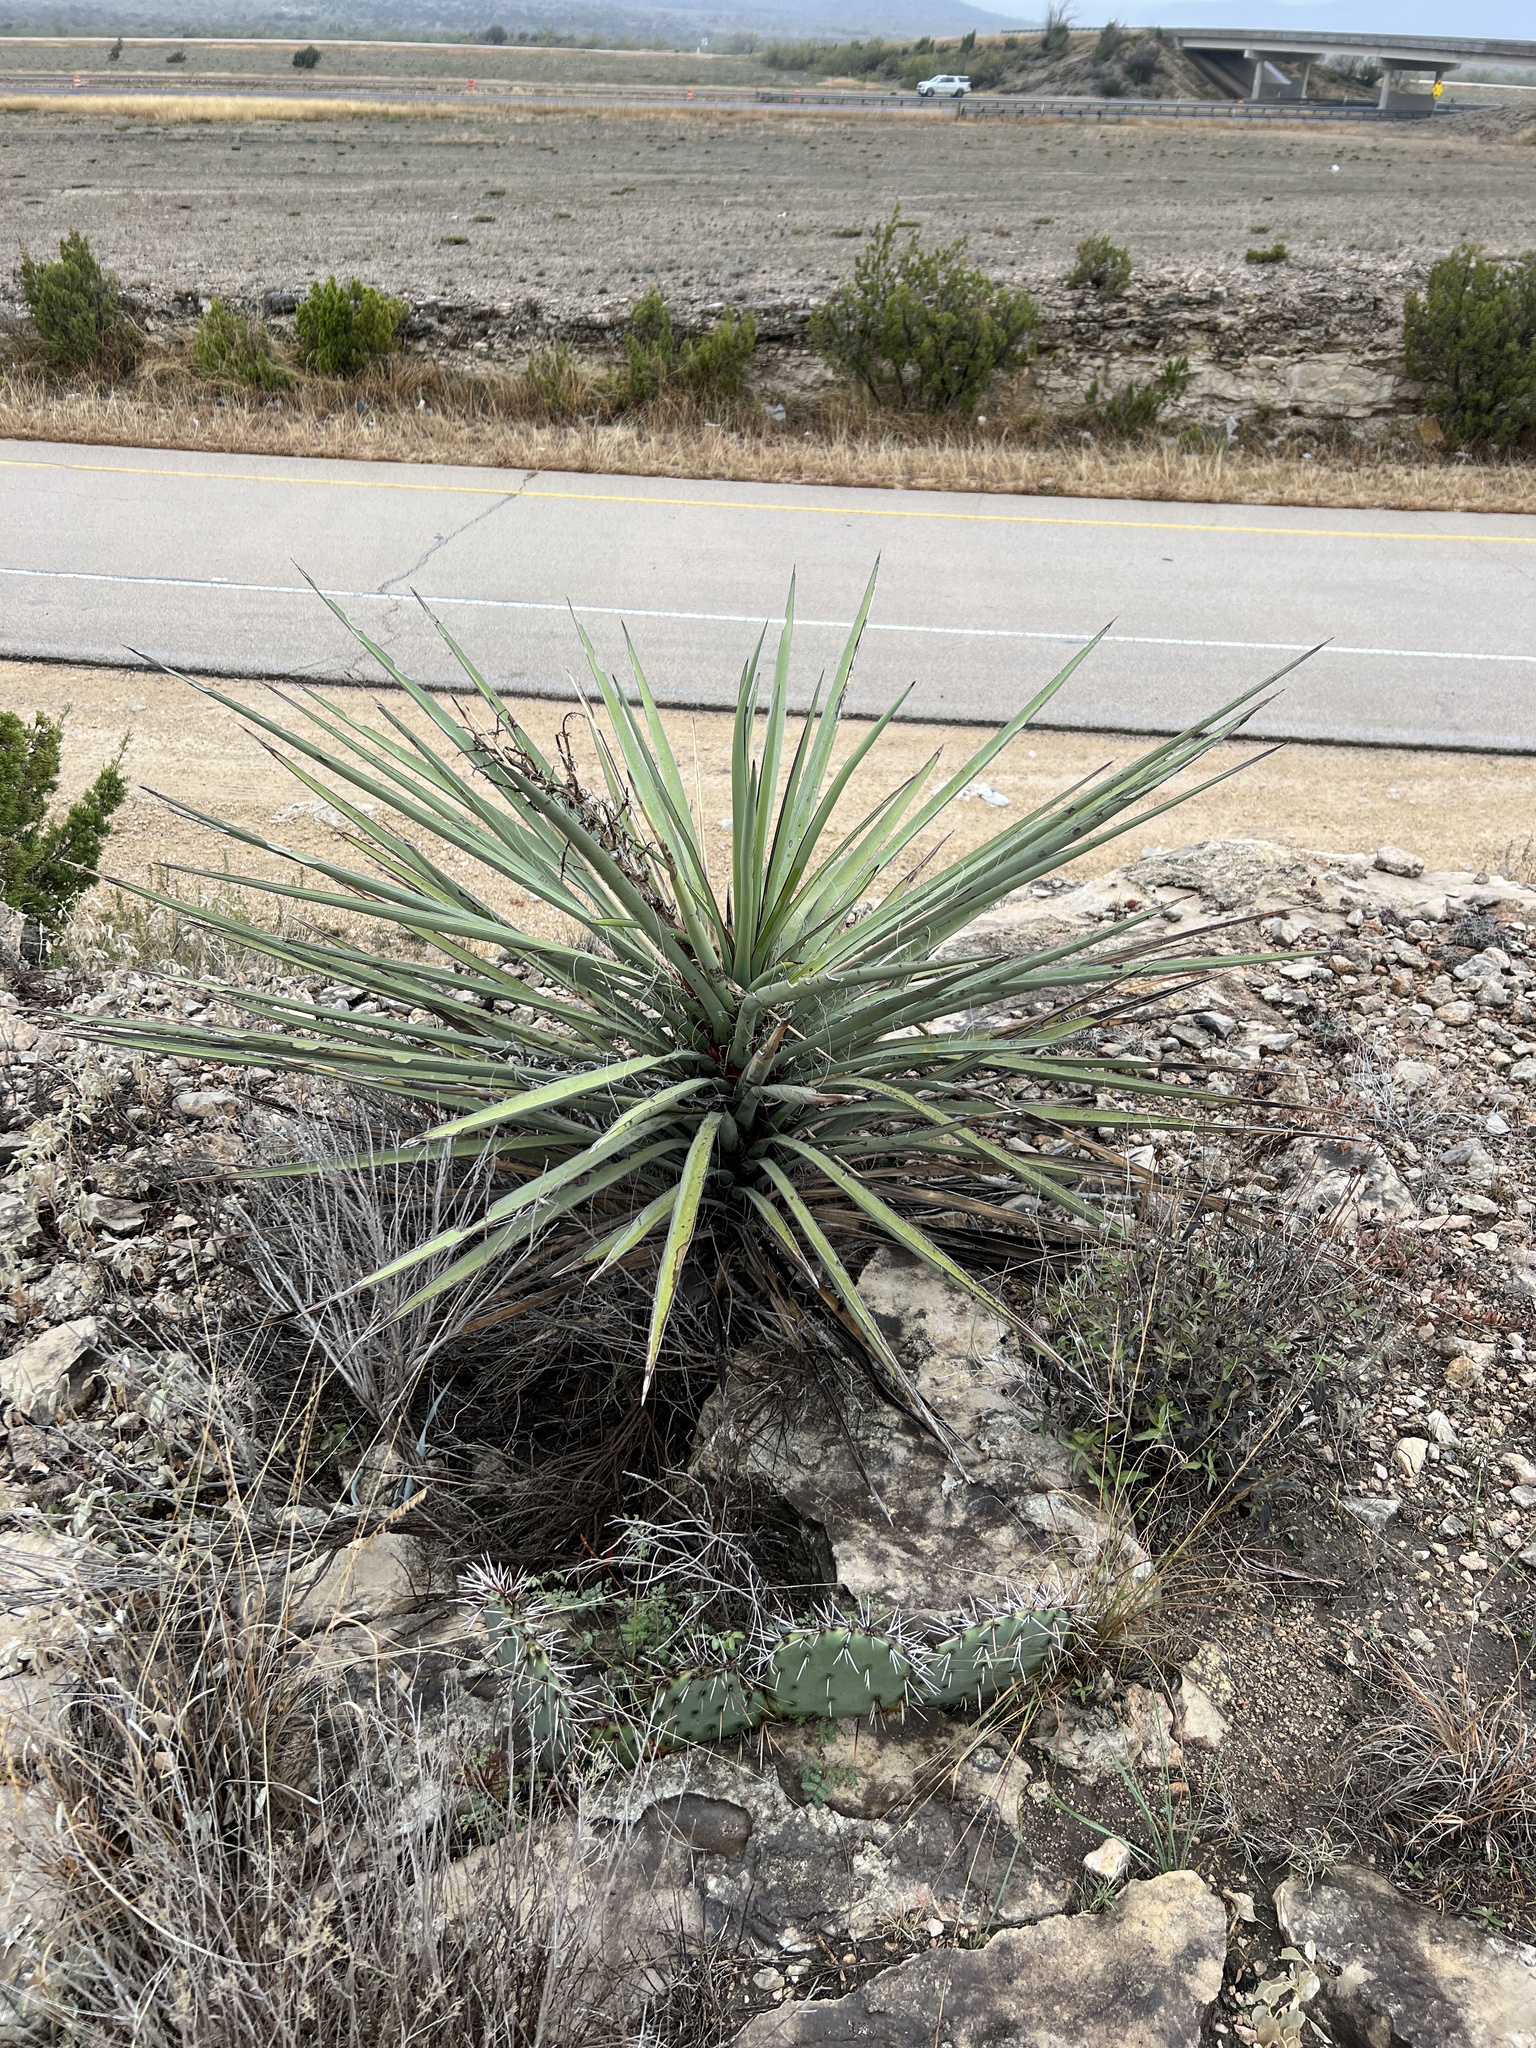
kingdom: Plantae
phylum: Tracheophyta
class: Liliopsida
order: Asparagales
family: Asparagaceae
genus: Yucca
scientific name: Yucca treculiana
